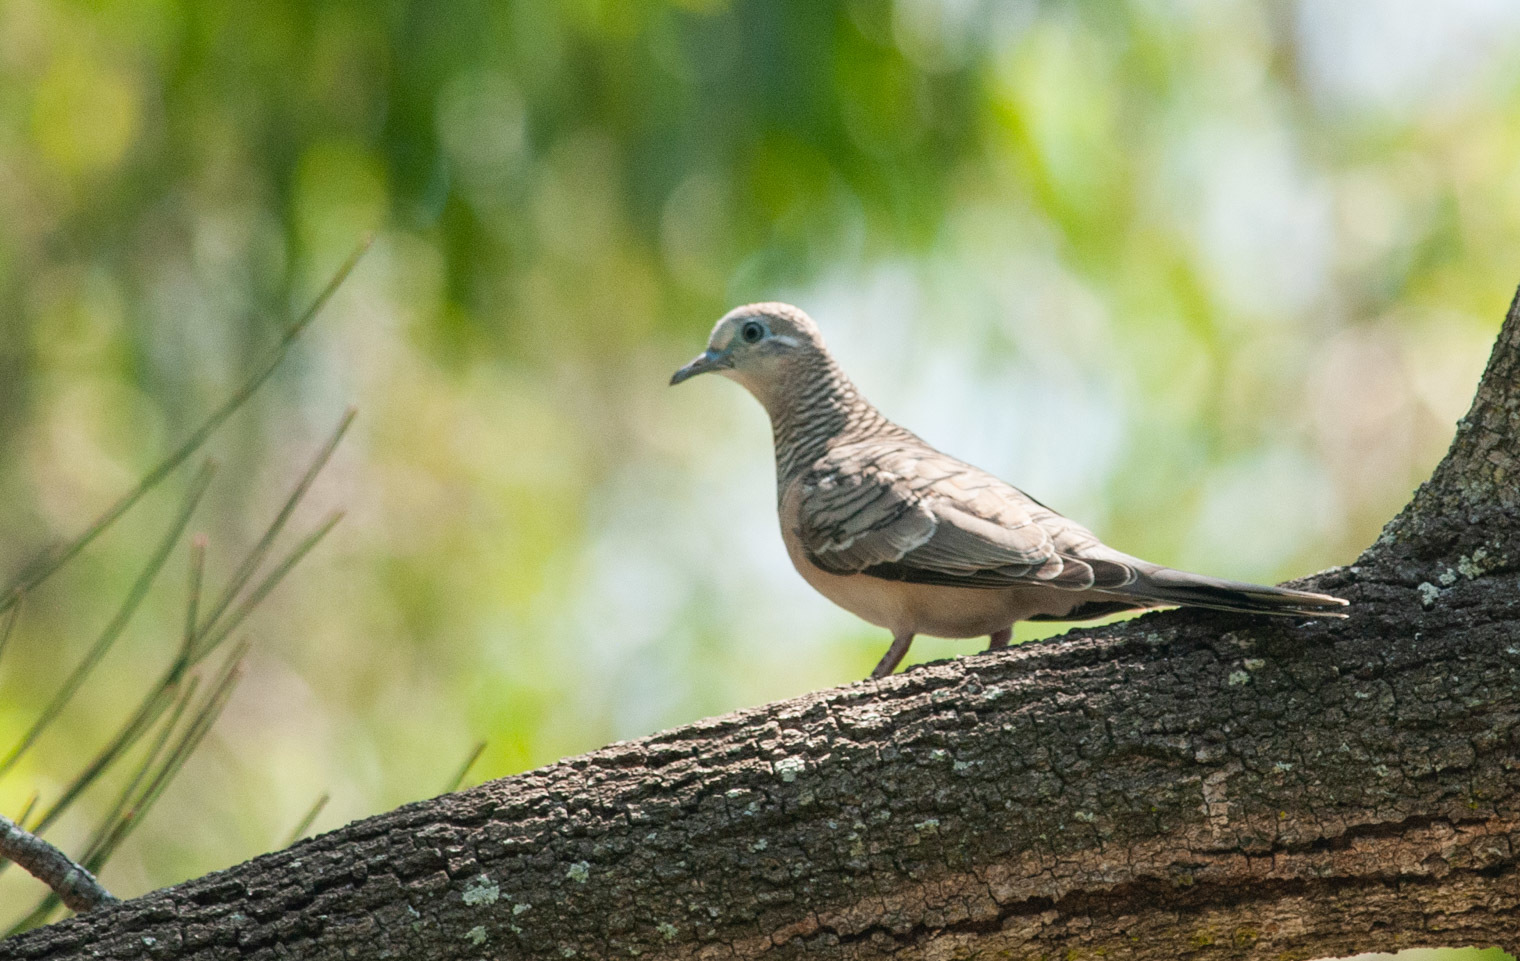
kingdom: Animalia
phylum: Chordata
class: Aves
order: Columbiformes
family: Columbidae
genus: Geopelia
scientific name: Geopelia placida
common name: Peaceful dove
